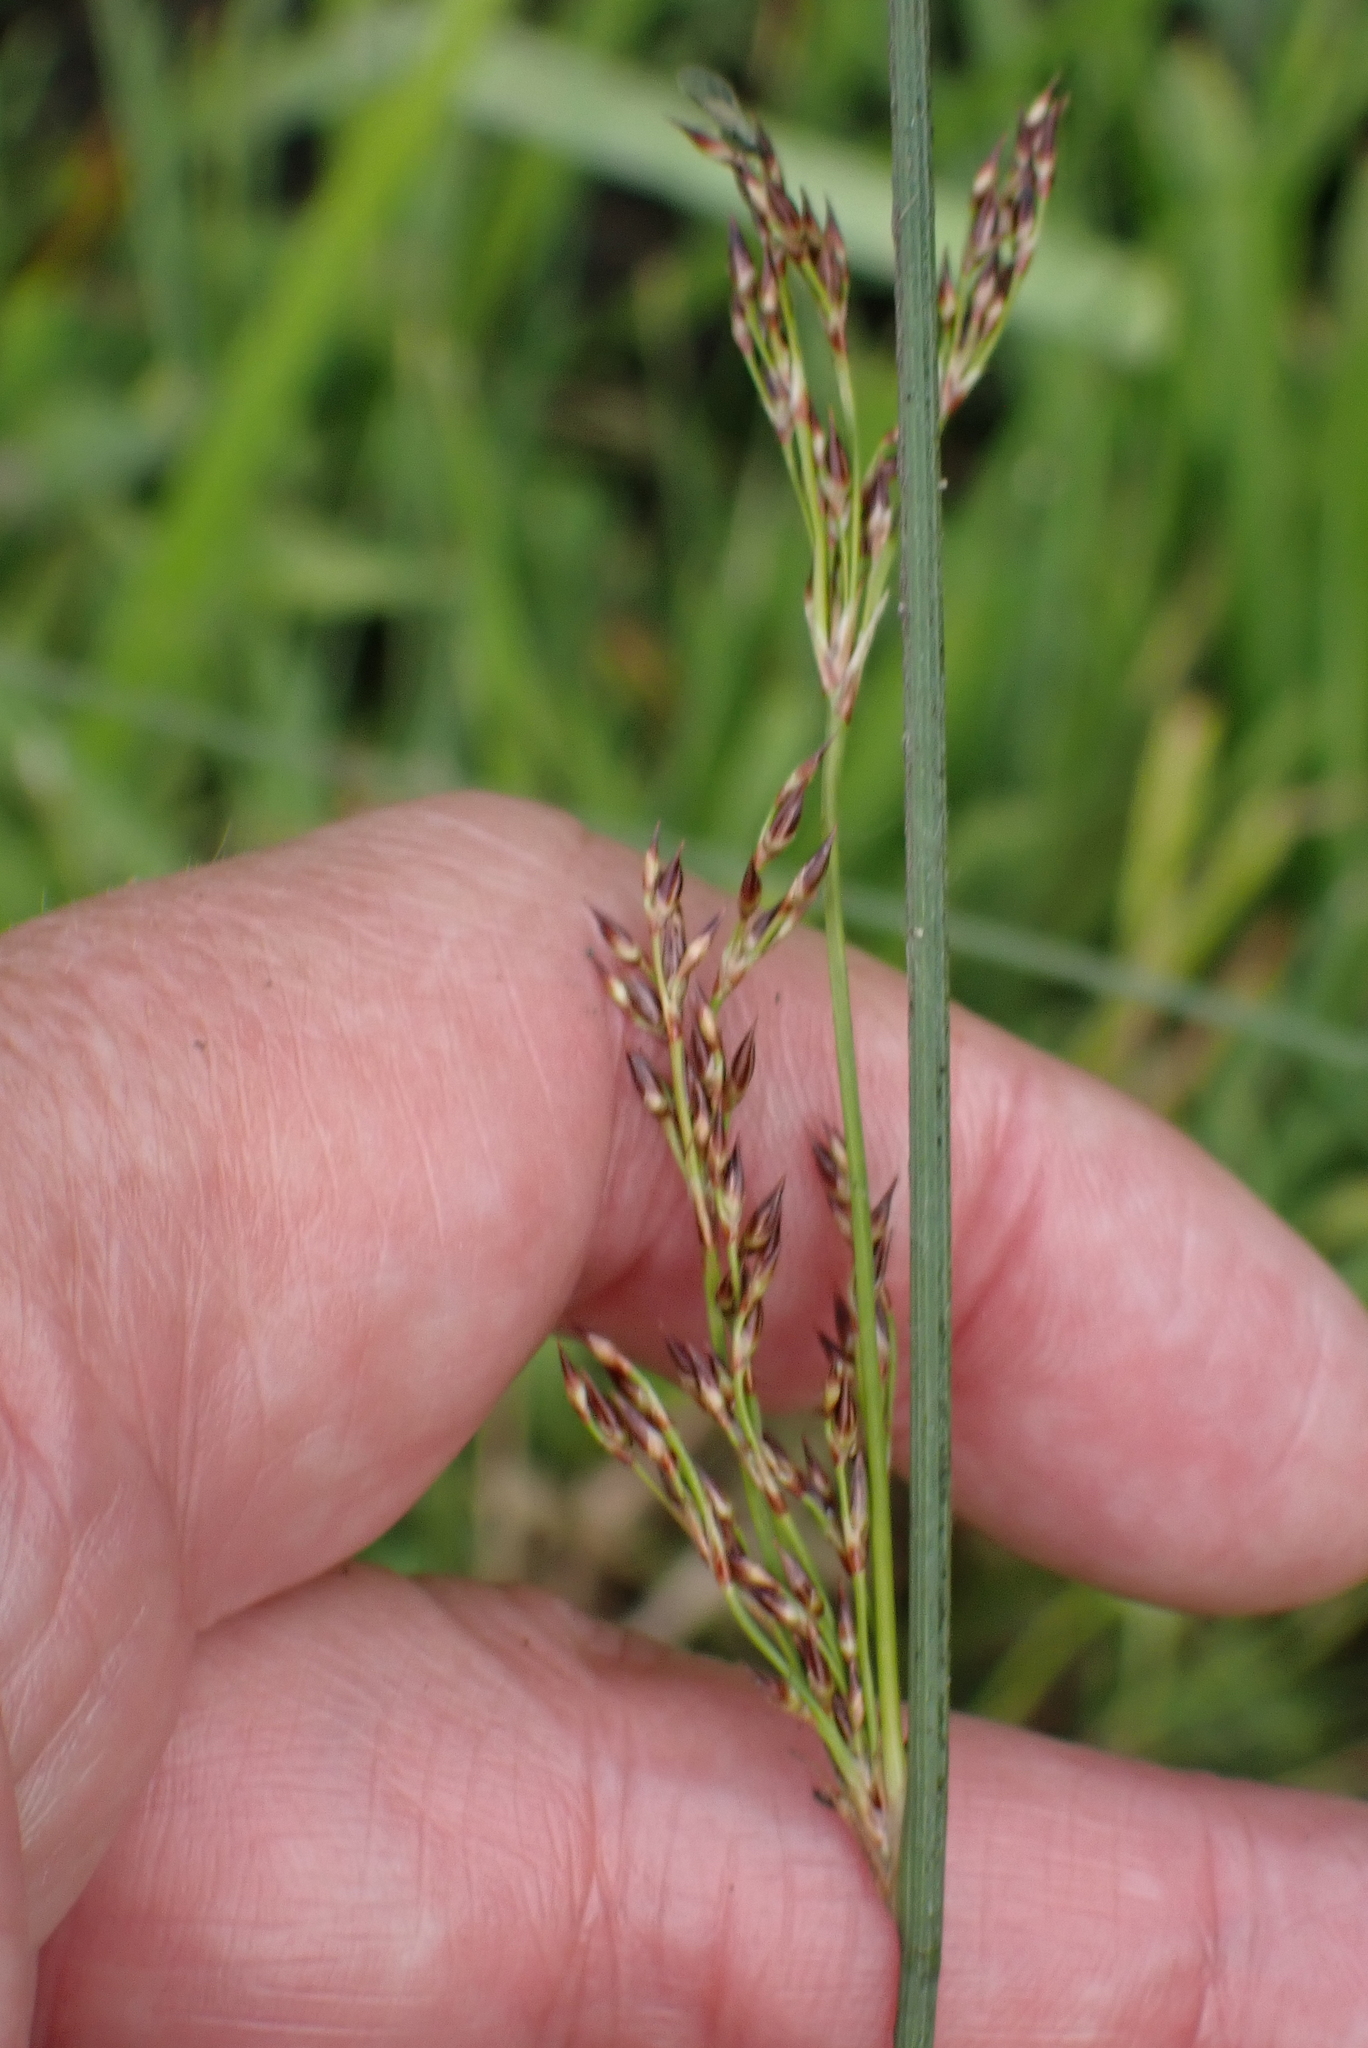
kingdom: Plantae
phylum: Tracheophyta
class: Liliopsida
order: Poales
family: Juncaceae
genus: Juncus
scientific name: Juncus inflexus
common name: Hard rush
